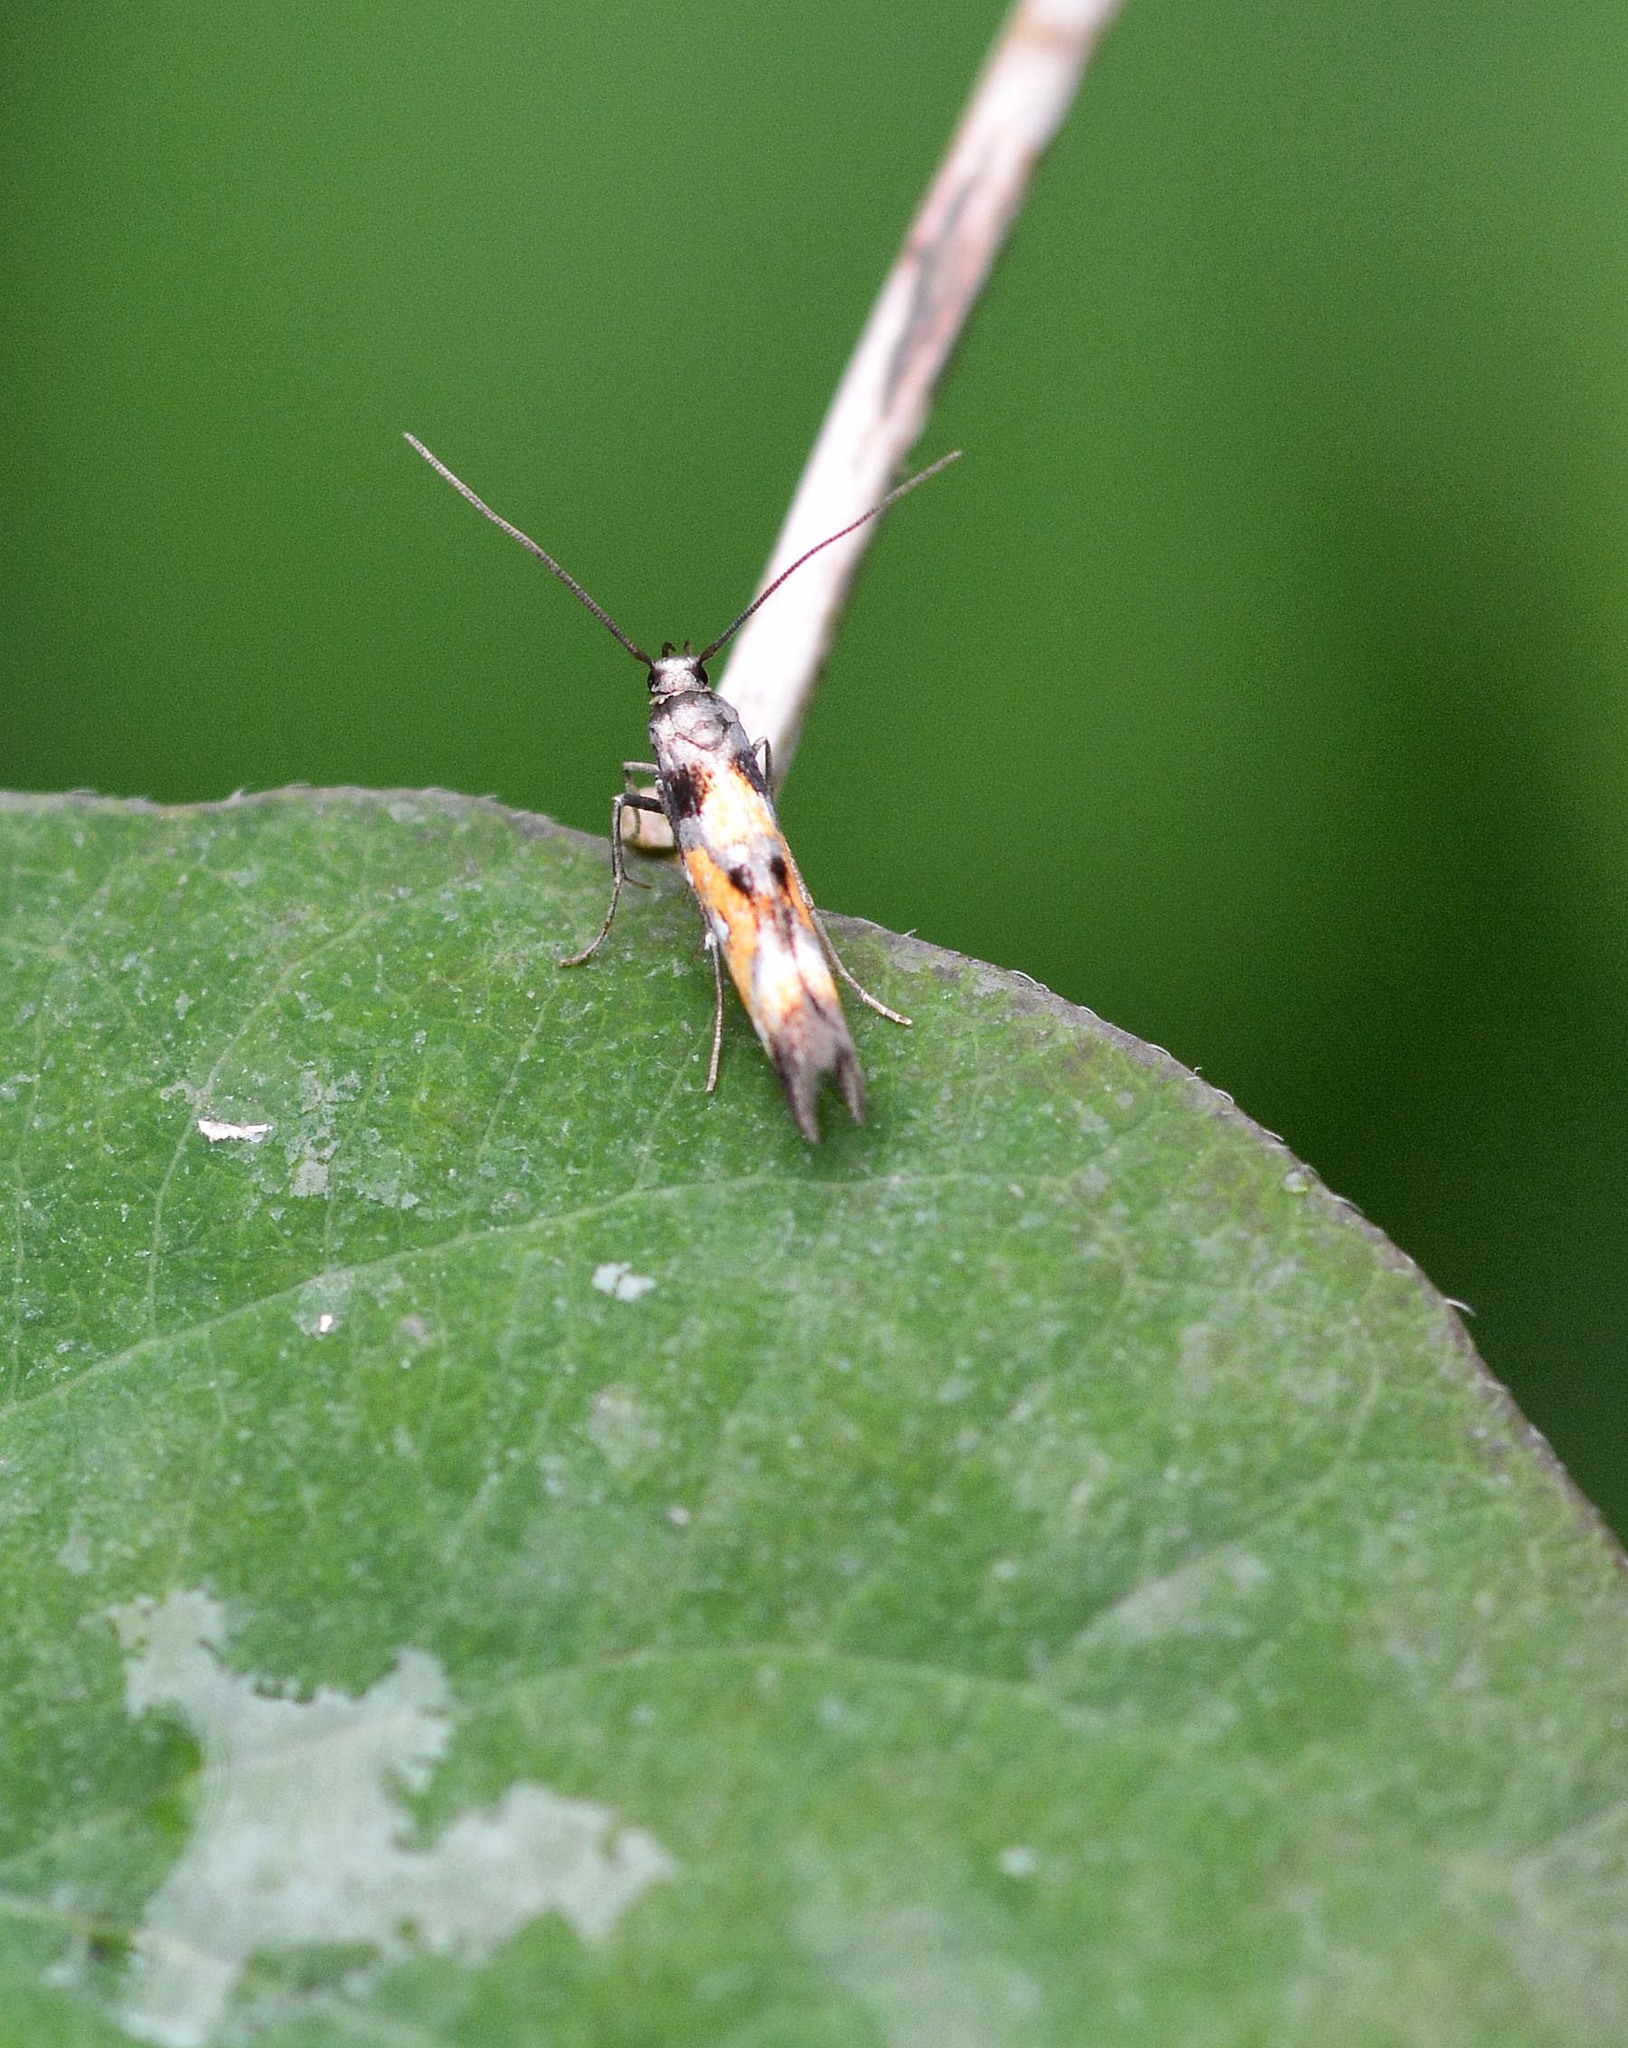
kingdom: Animalia
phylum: Arthropoda
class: Insecta
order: Lepidoptera
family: Momphidae
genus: Mompha
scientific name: Mompha locupletella
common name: Red cosmet
